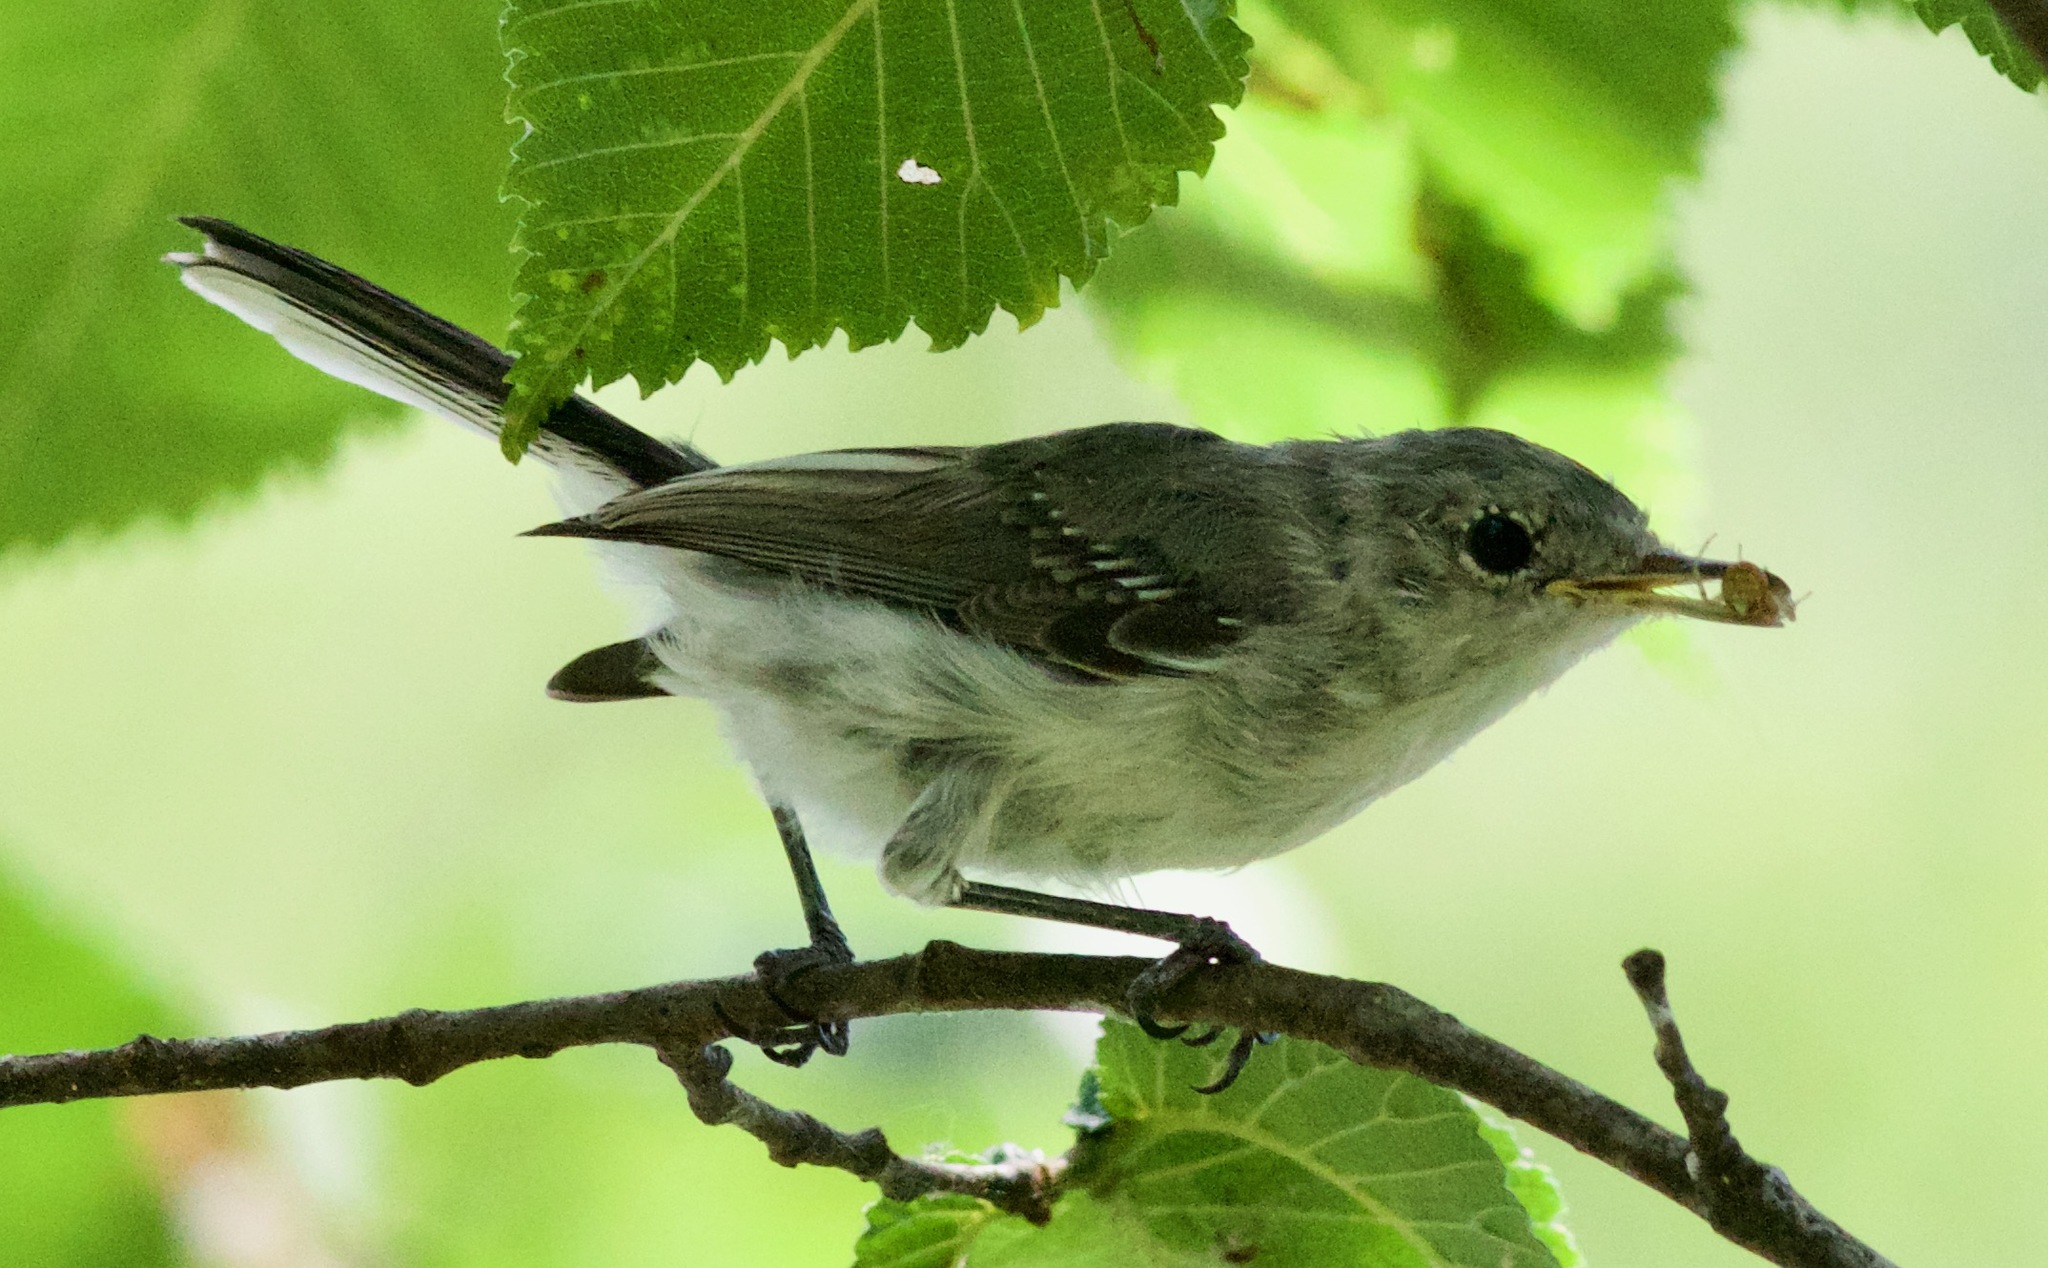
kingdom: Animalia
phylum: Chordata
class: Aves
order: Passeriformes
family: Polioptilidae
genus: Polioptila
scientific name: Polioptila caerulea
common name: Blue-gray gnatcatcher
